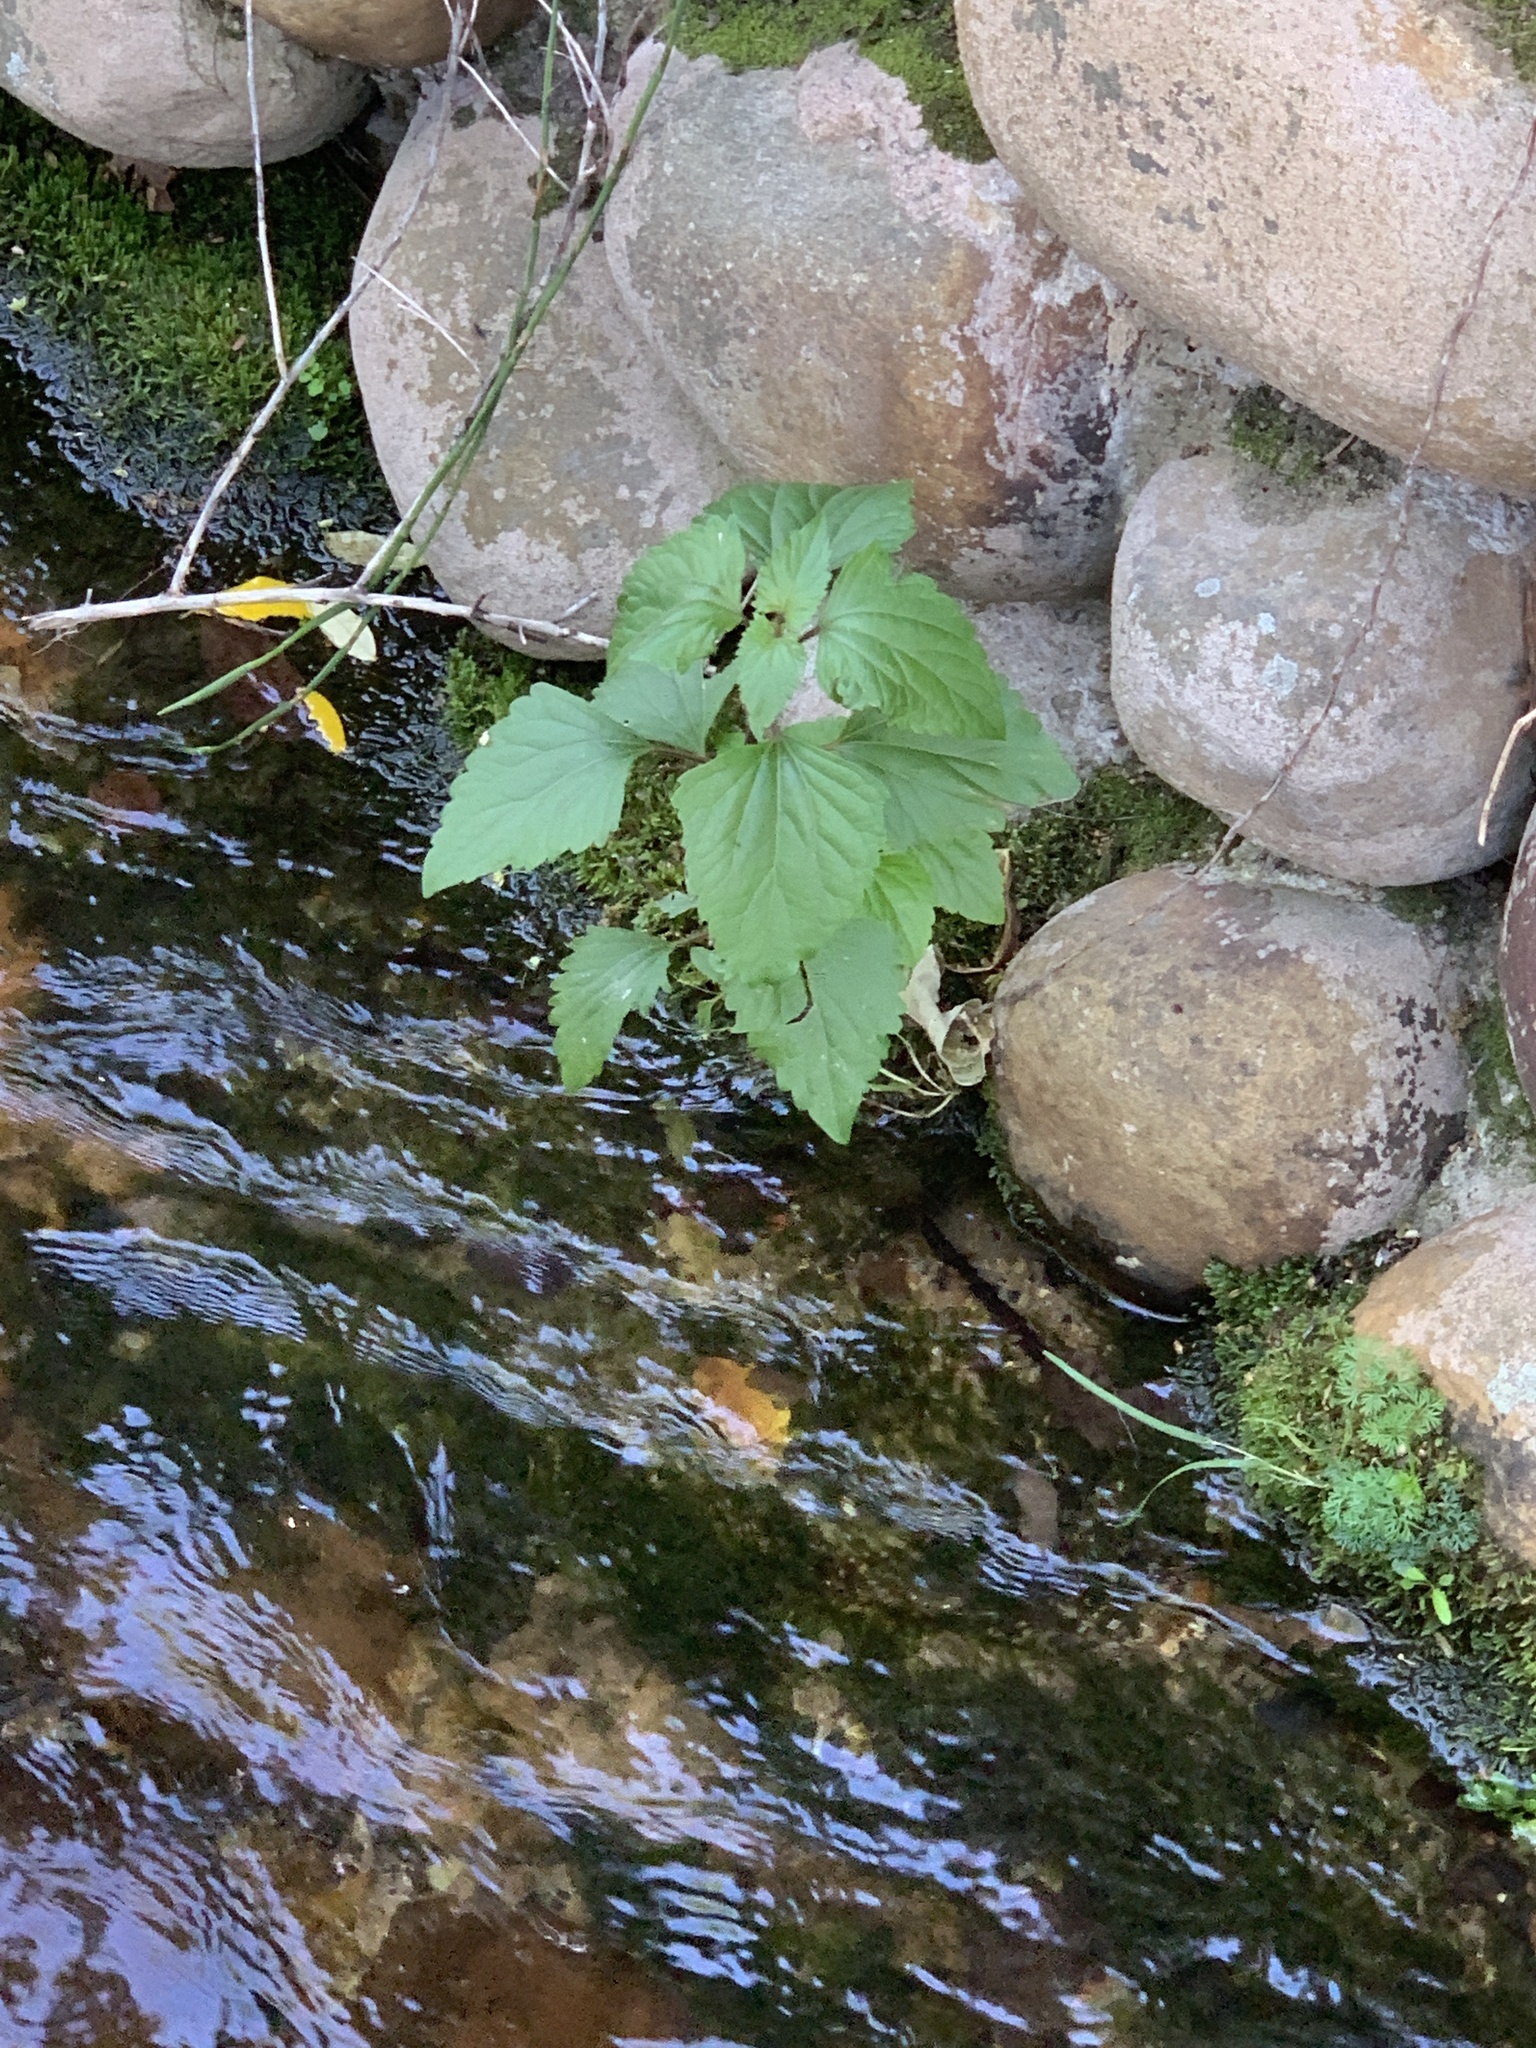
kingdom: Plantae
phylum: Tracheophyta
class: Magnoliopsida
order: Asterales
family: Asteraceae
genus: Ageratina
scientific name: Ageratina adenophora
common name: Sticky snakeroot
